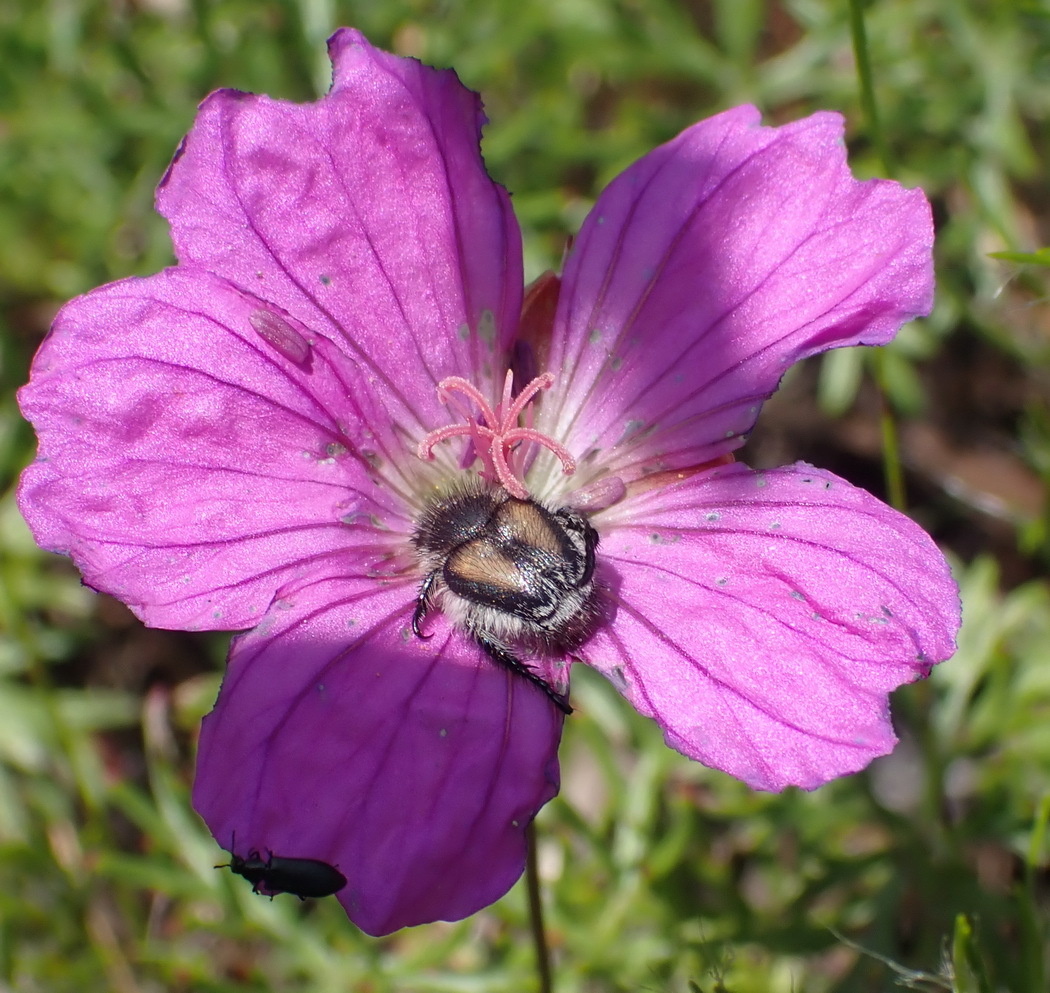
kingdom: Plantae
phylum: Tracheophyta
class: Magnoliopsida
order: Geraniales
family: Geraniaceae
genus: Geranium
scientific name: Geranium incanum
